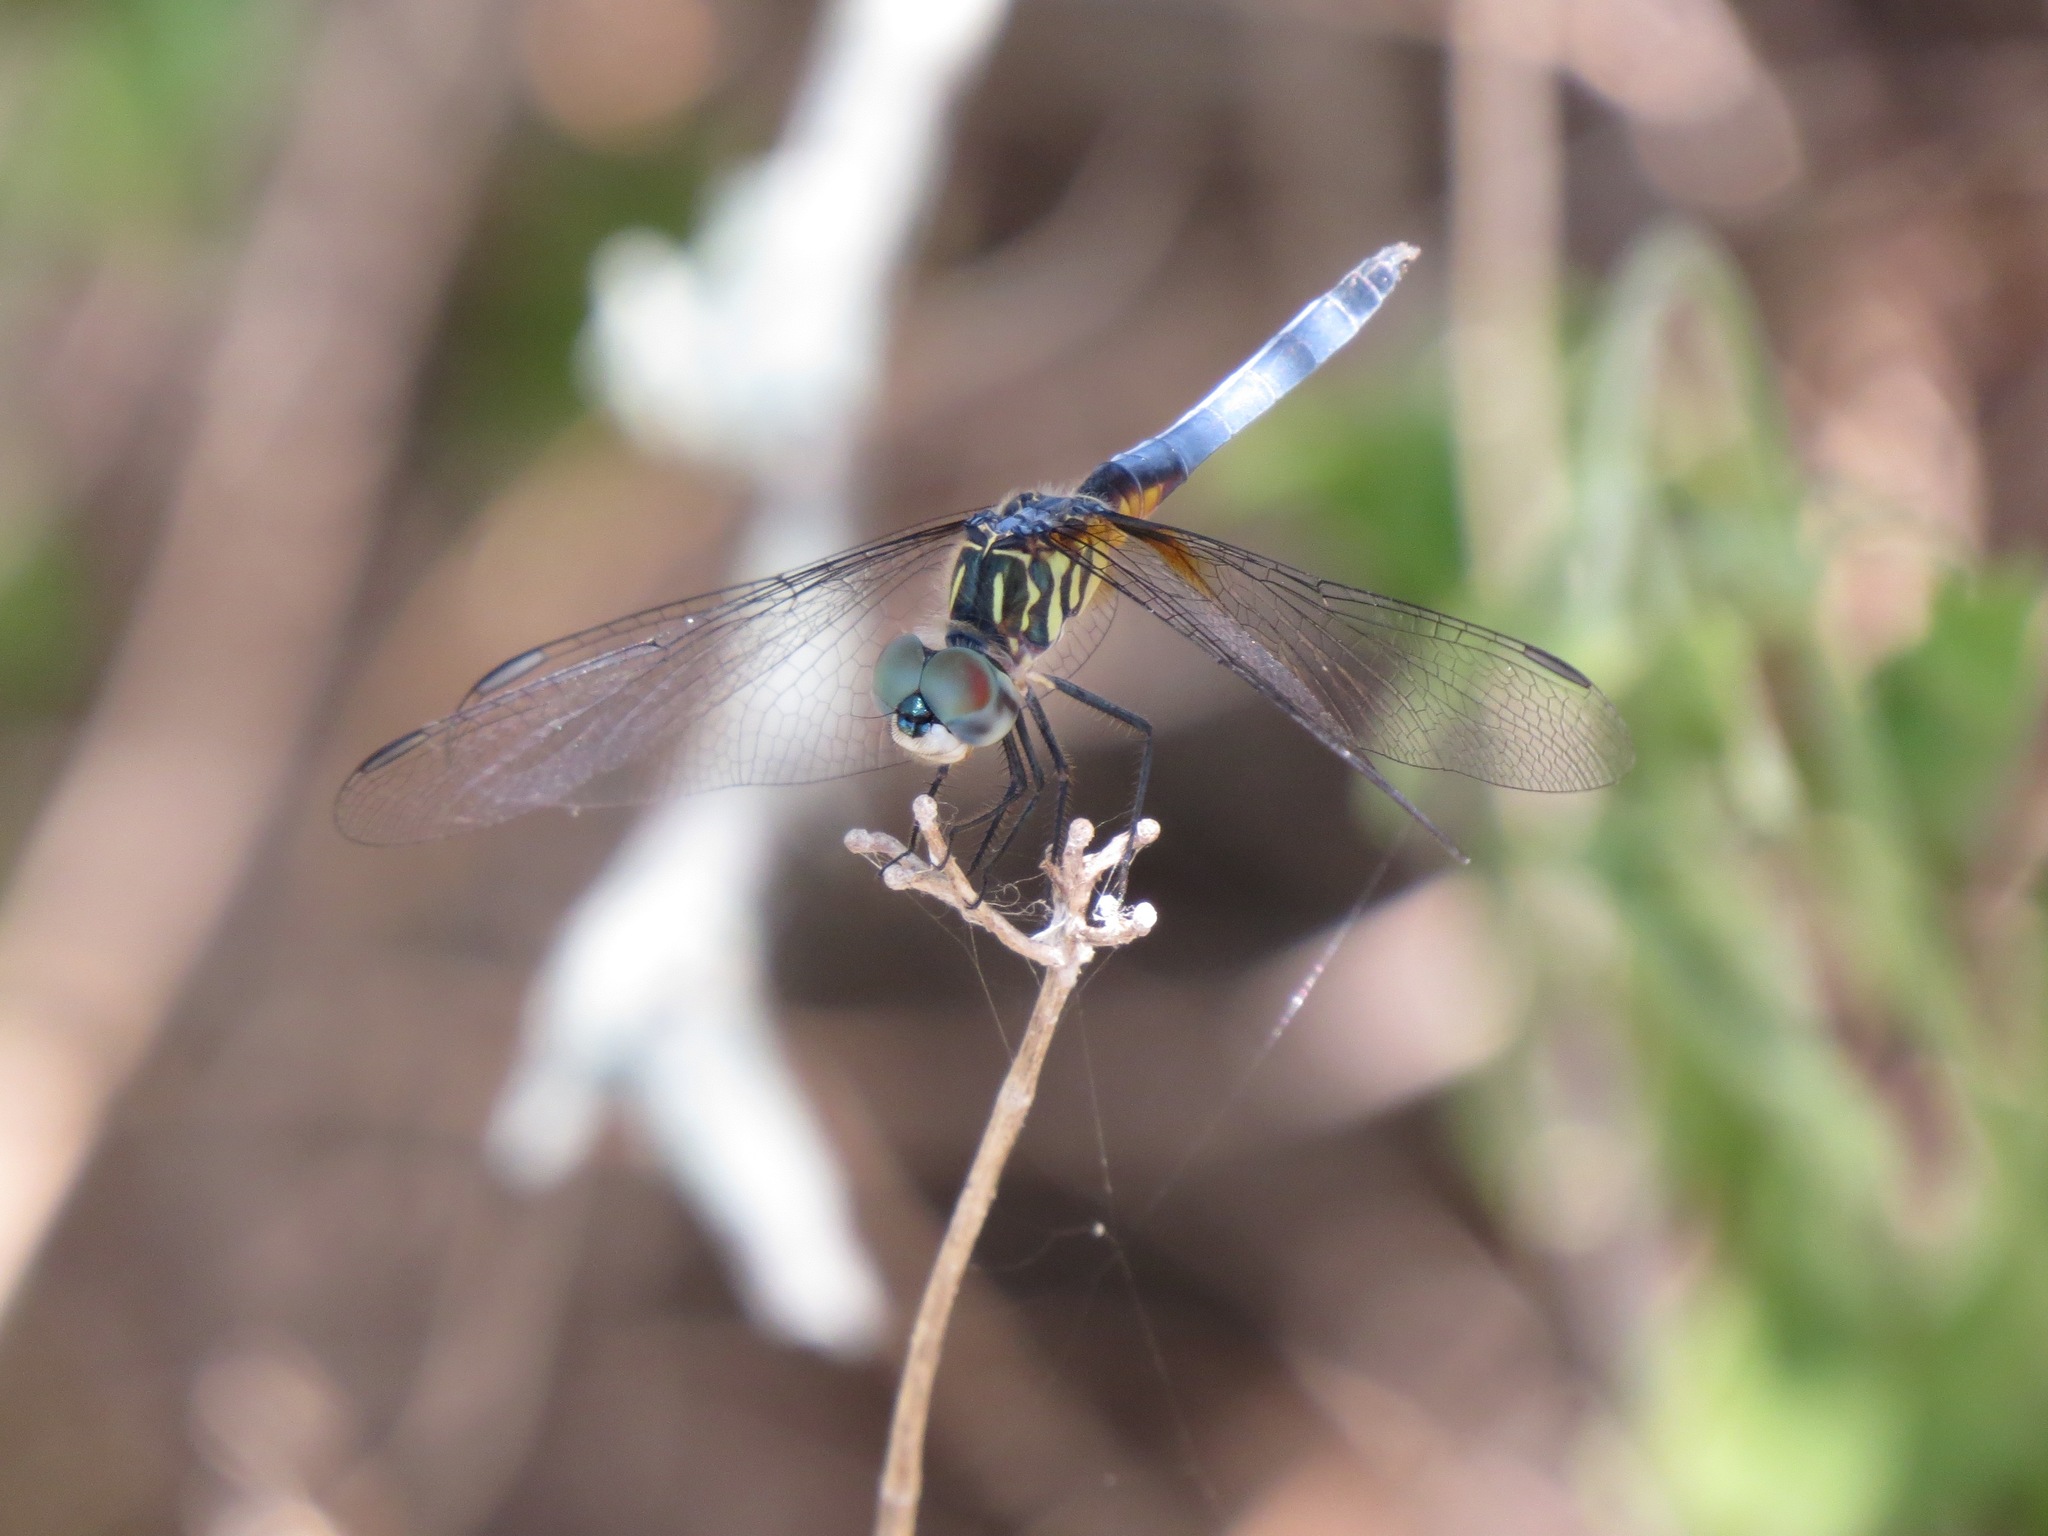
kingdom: Animalia
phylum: Arthropoda
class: Insecta
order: Odonata
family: Libellulidae
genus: Pachydiplax
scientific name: Pachydiplax longipennis
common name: Blue dasher
